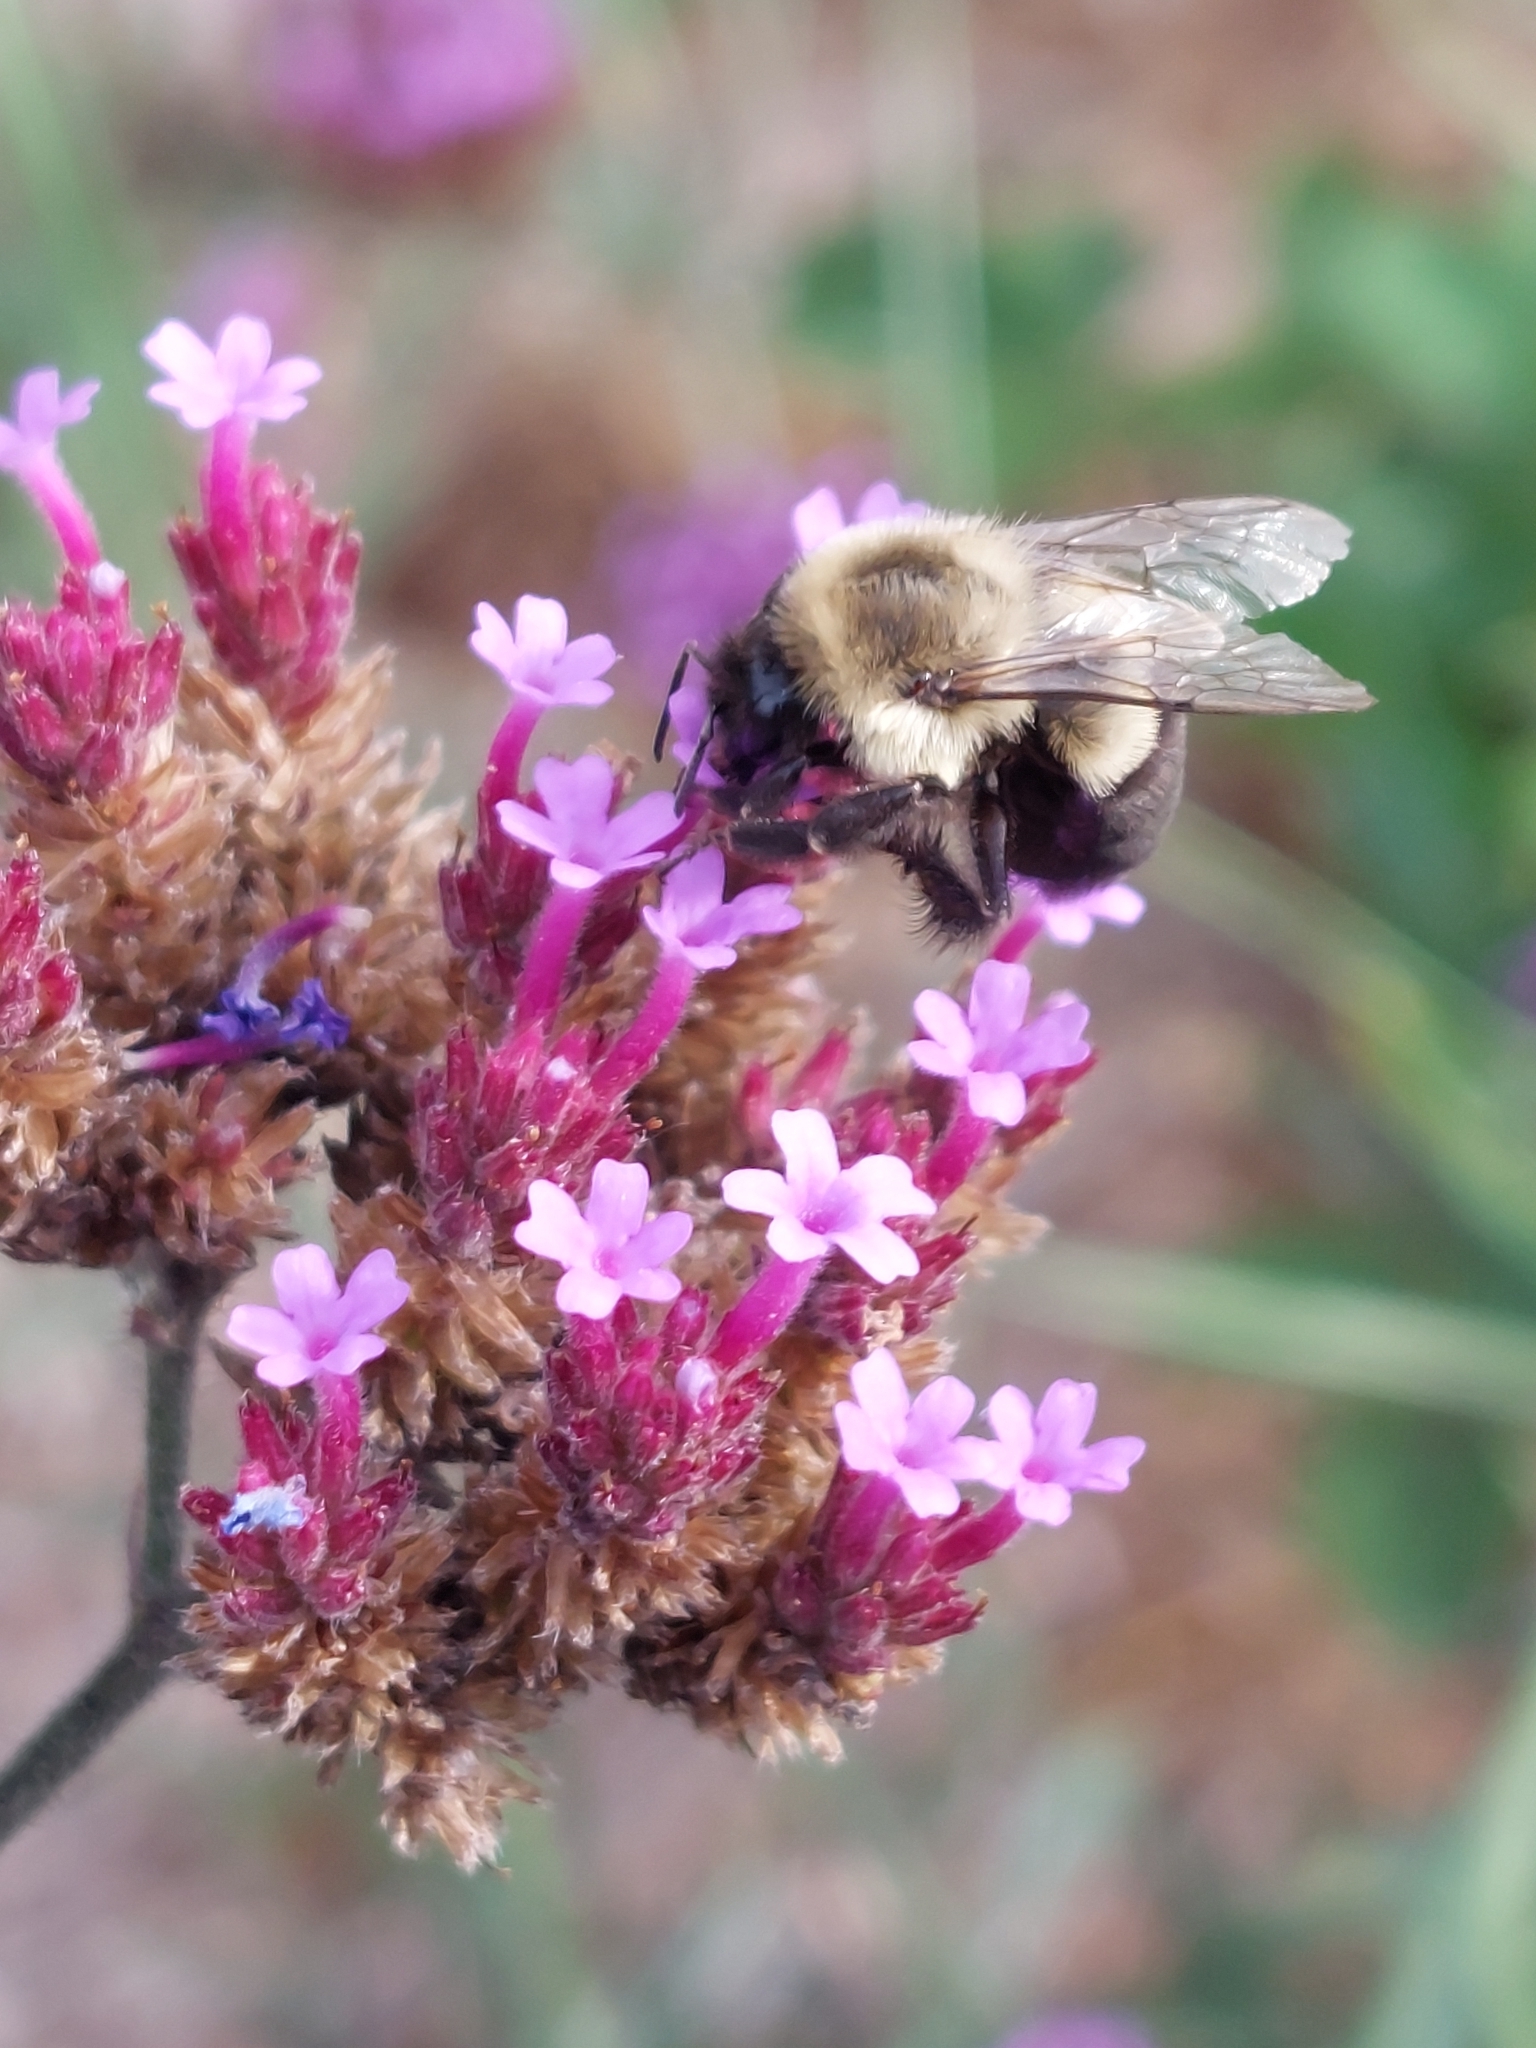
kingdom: Animalia
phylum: Arthropoda
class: Insecta
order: Hymenoptera
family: Apidae
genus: Bombus
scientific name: Bombus impatiens
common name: Common eastern bumble bee
